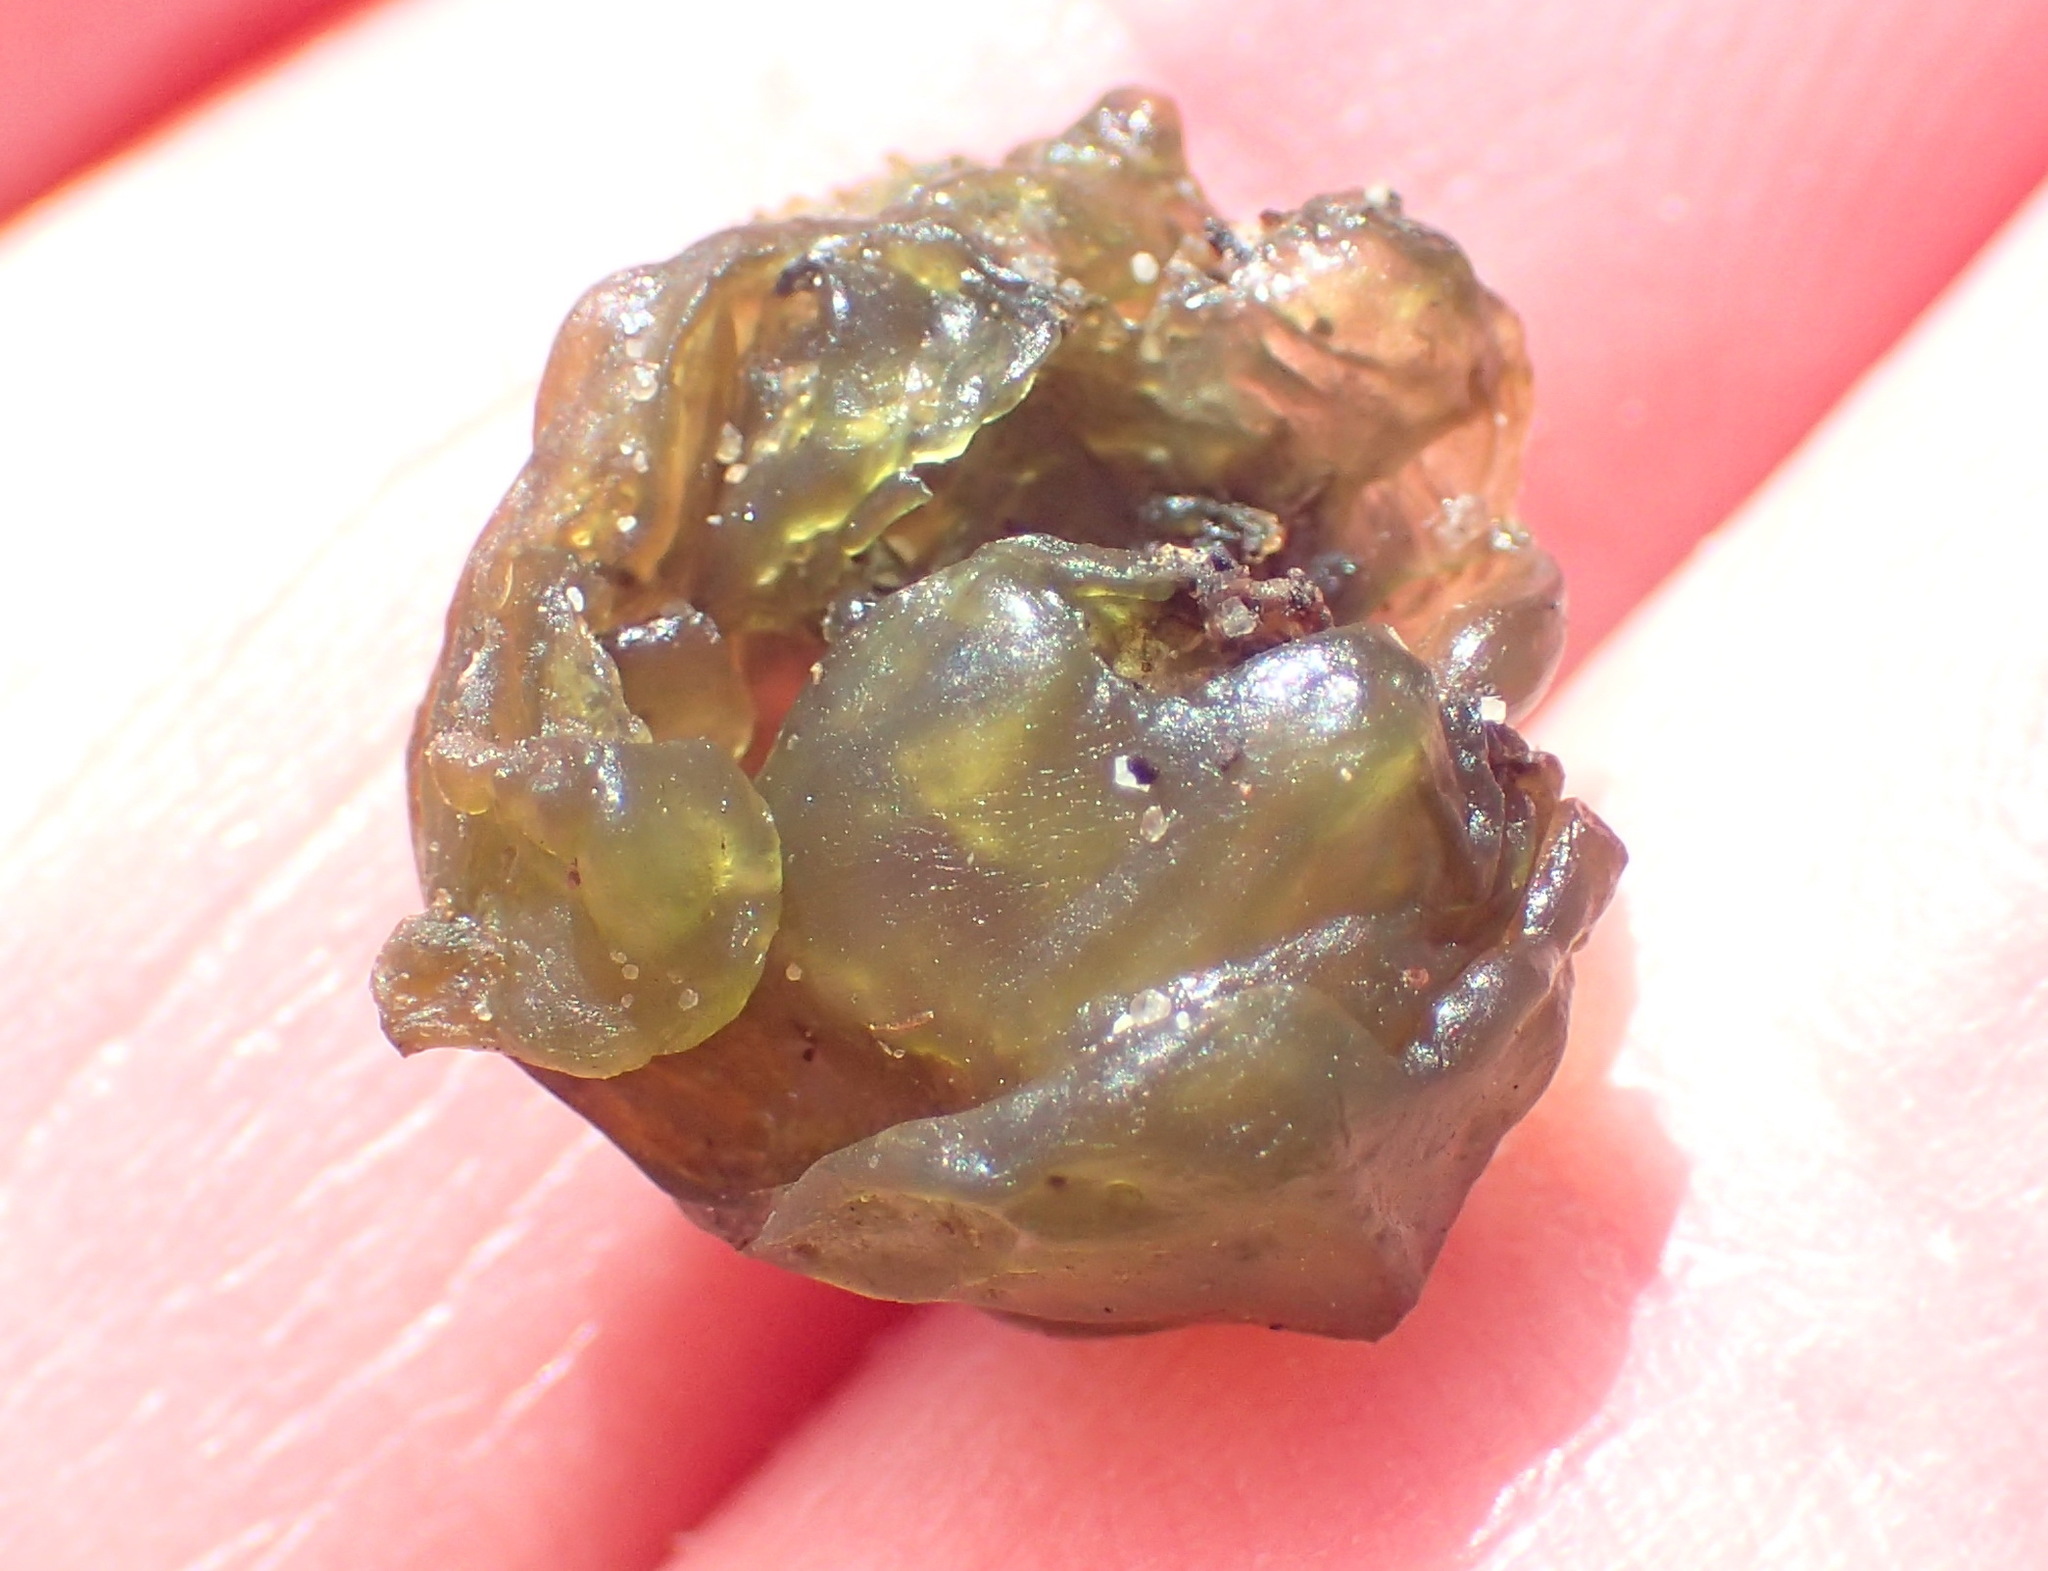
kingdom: Bacteria
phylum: Cyanobacteria
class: Cyanobacteriia
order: Cyanobacteriales
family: Nostocaceae
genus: Nostoc
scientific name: Nostoc commune
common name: Star jelly
